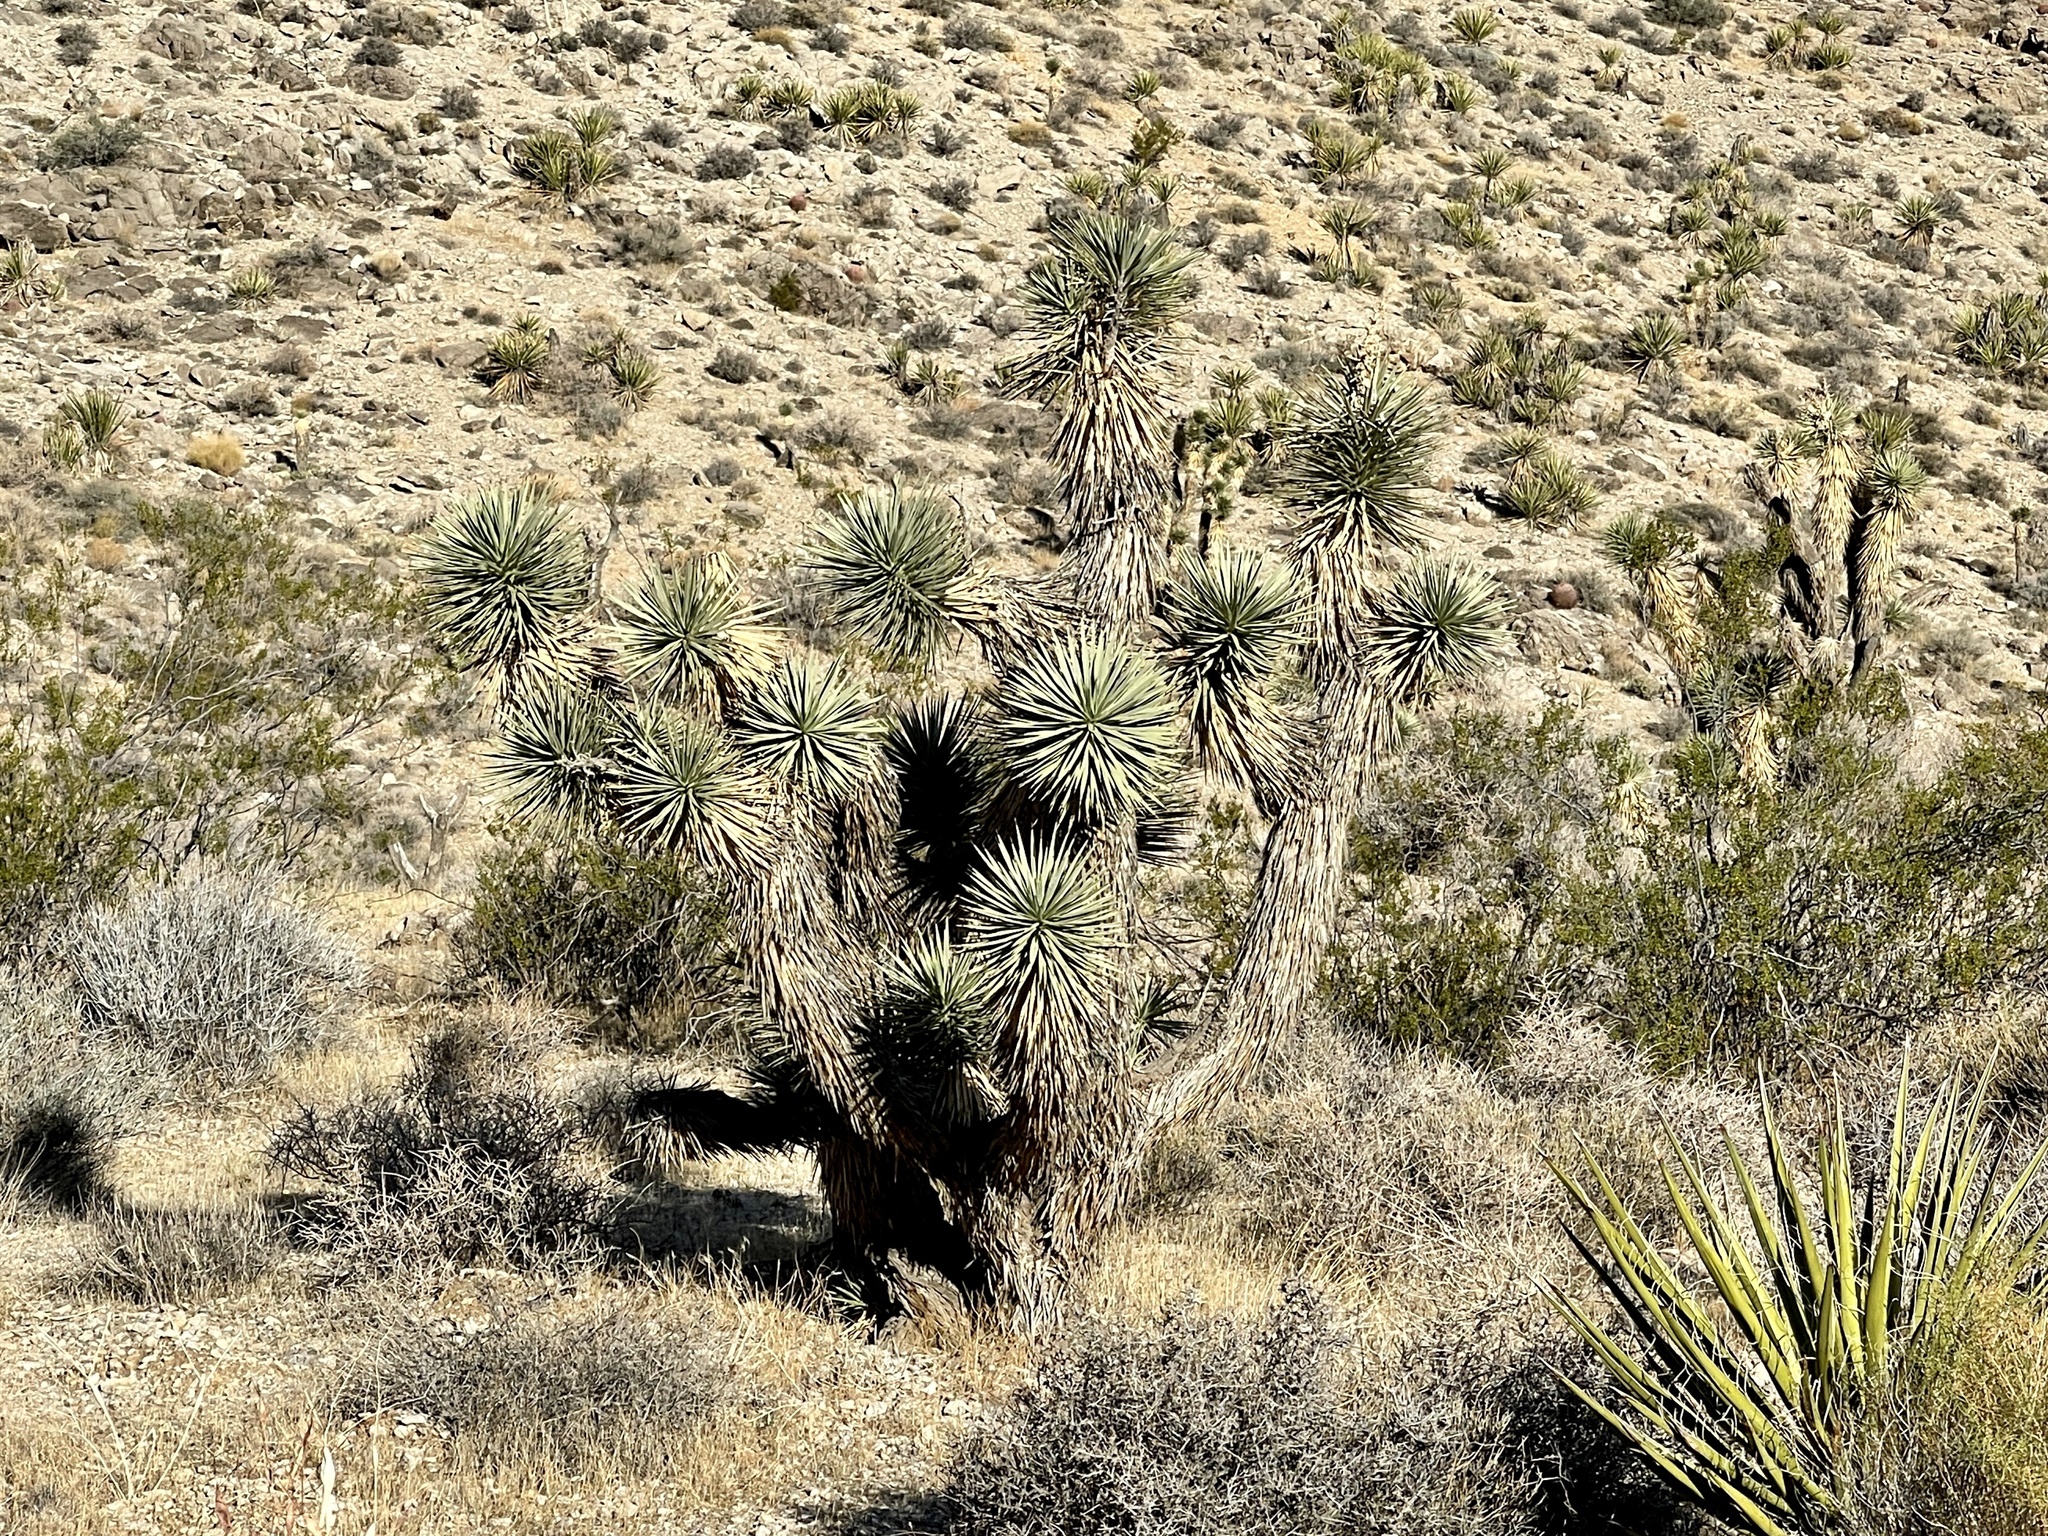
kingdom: Plantae
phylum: Tracheophyta
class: Liliopsida
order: Asparagales
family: Asparagaceae
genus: Yucca
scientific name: Yucca brevifolia
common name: Joshua tree
